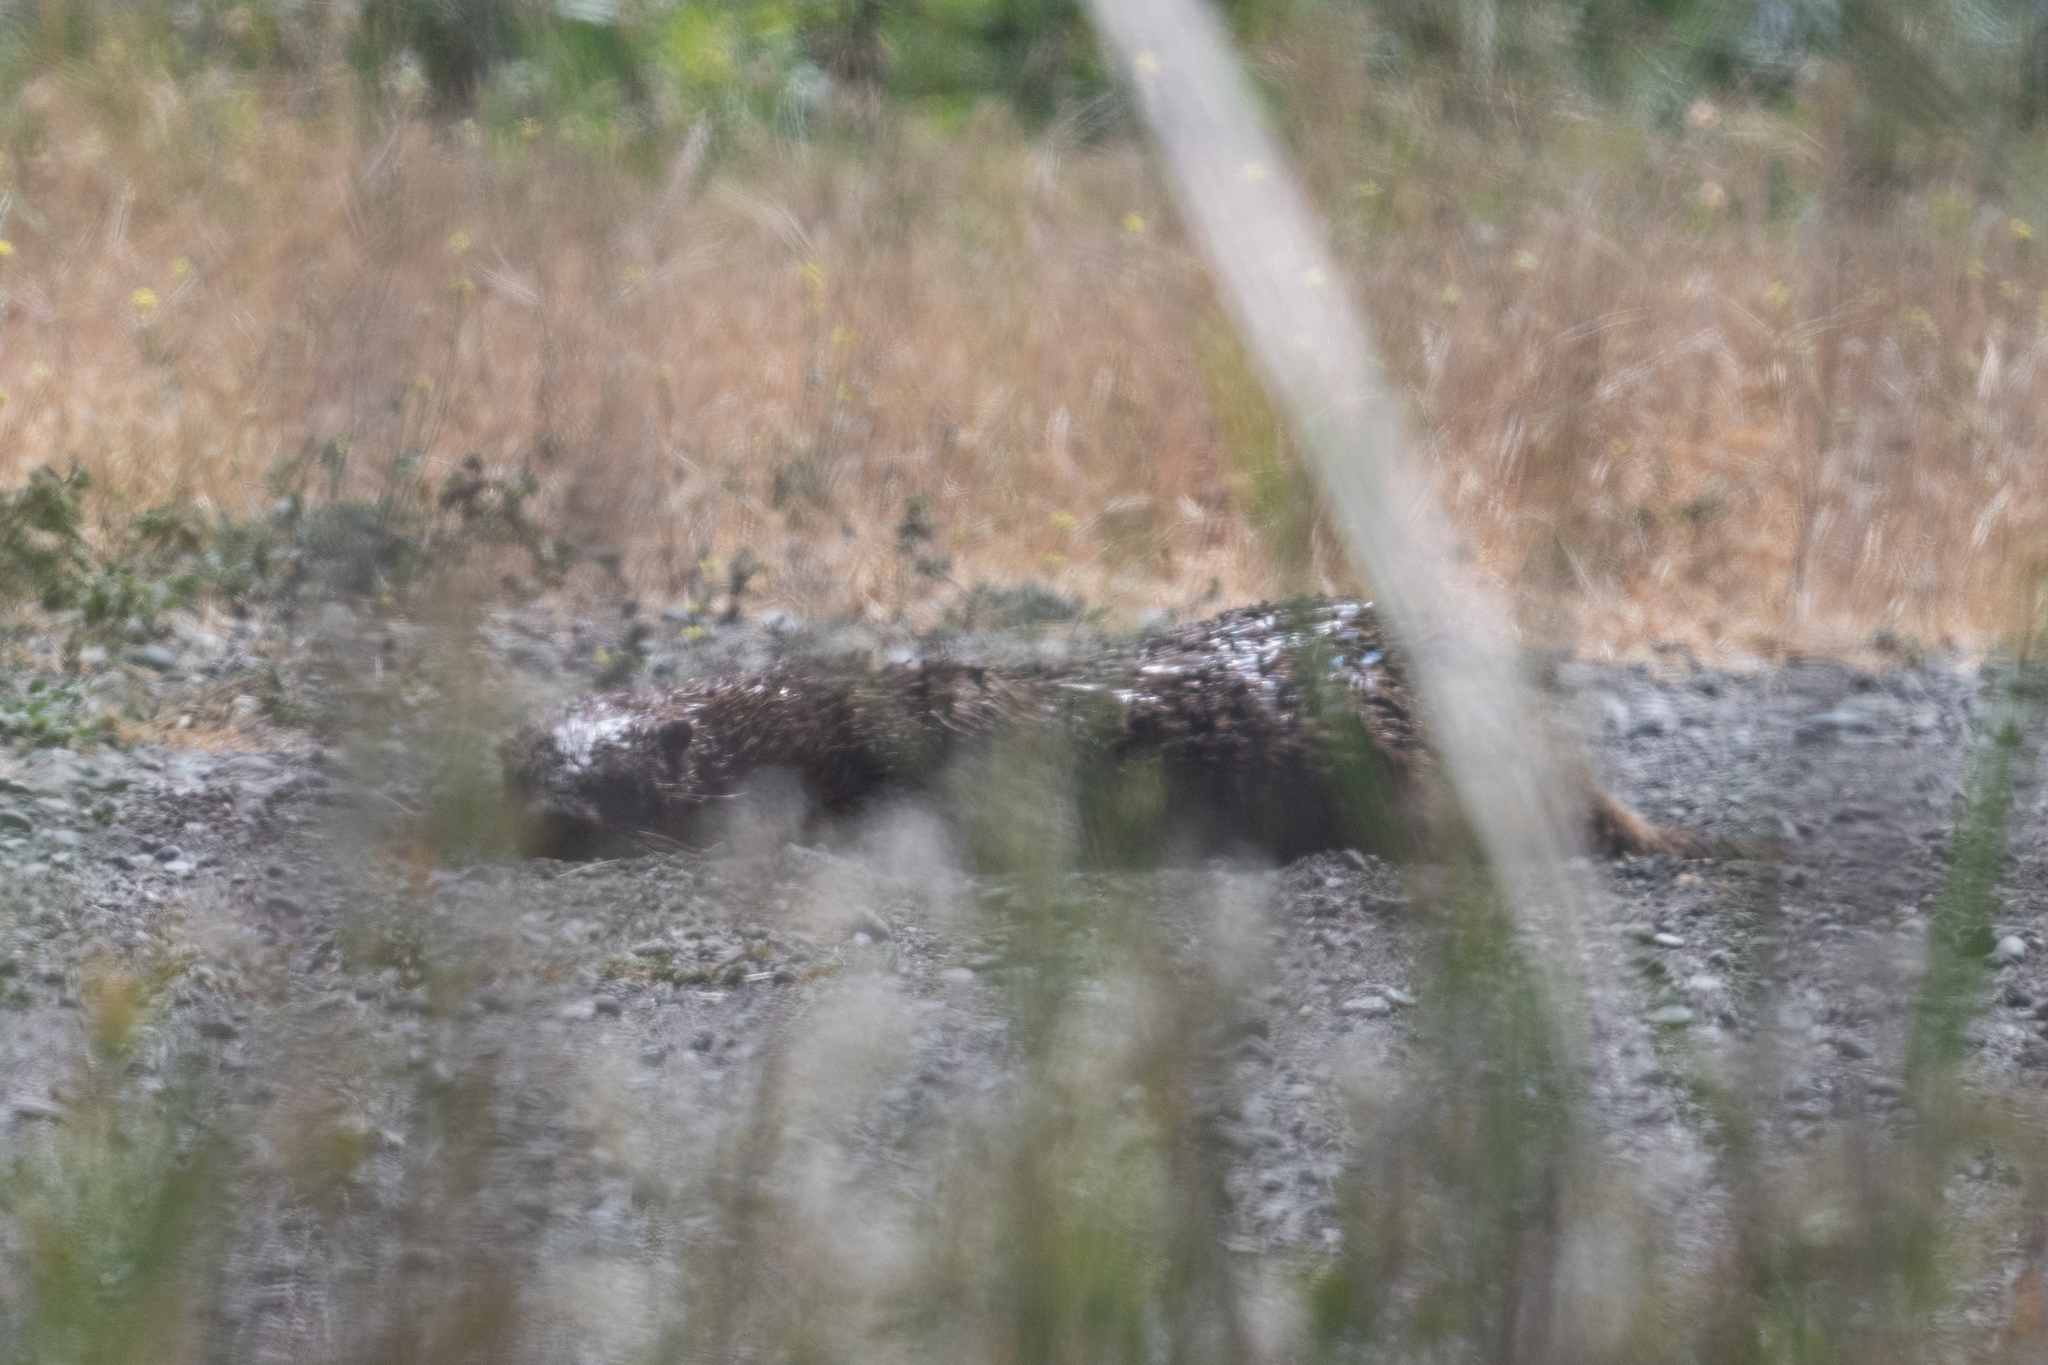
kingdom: Animalia
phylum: Chordata
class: Mammalia
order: Carnivora
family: Mustelidae
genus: Lontra
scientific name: Lontra canadensis
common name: North american river otter
